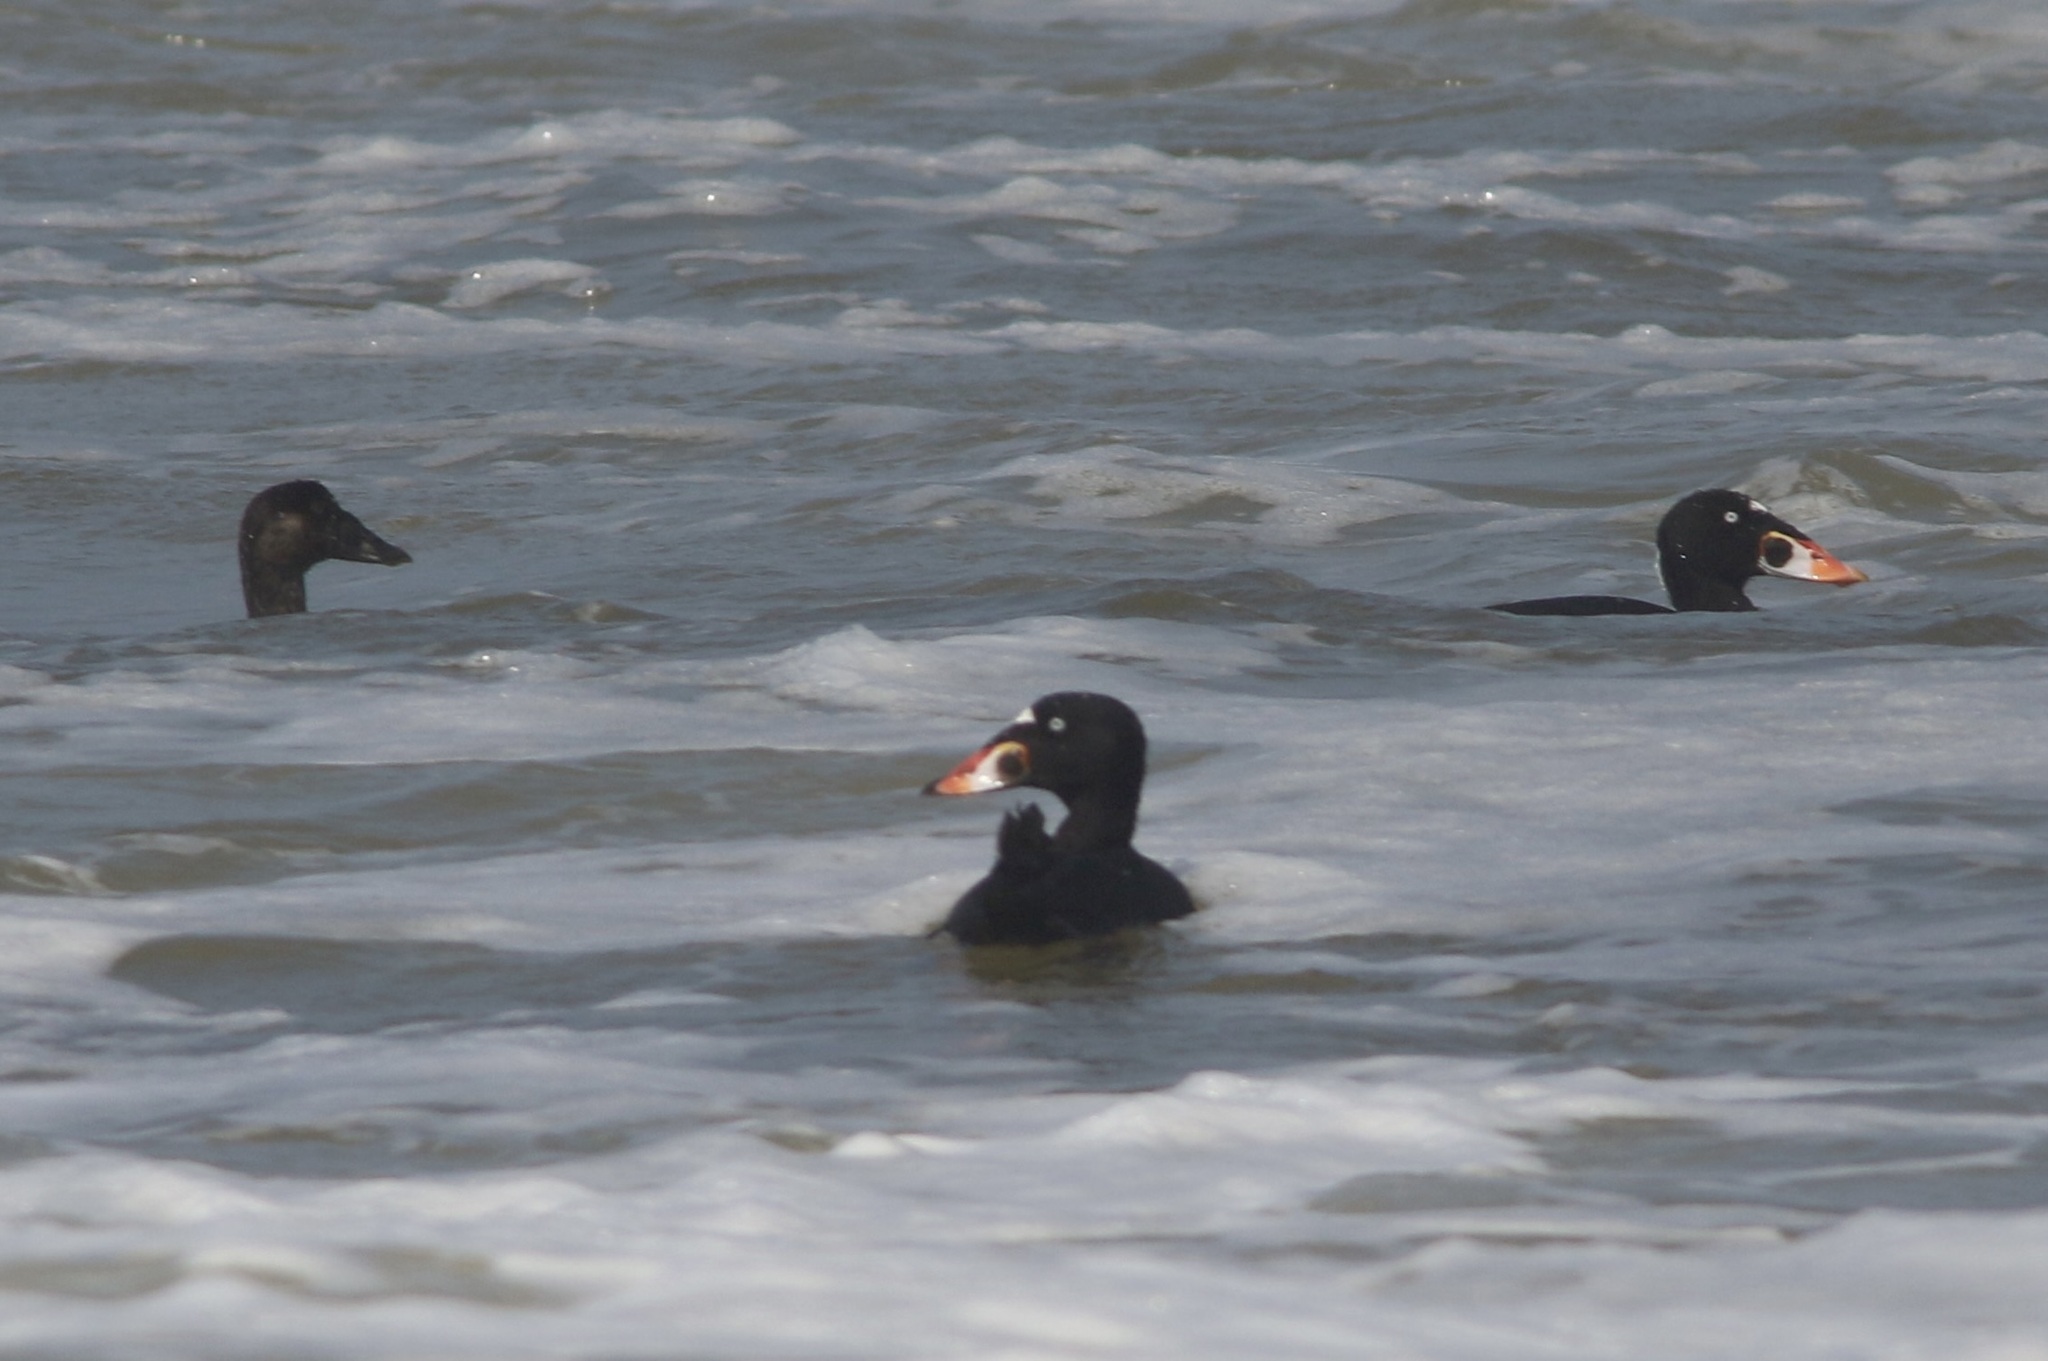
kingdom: Animalia
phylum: Chordata
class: Aves
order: Anseriformes
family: Anatidae
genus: Melanitta
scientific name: Melanitta perspicillata
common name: Surf scoter
